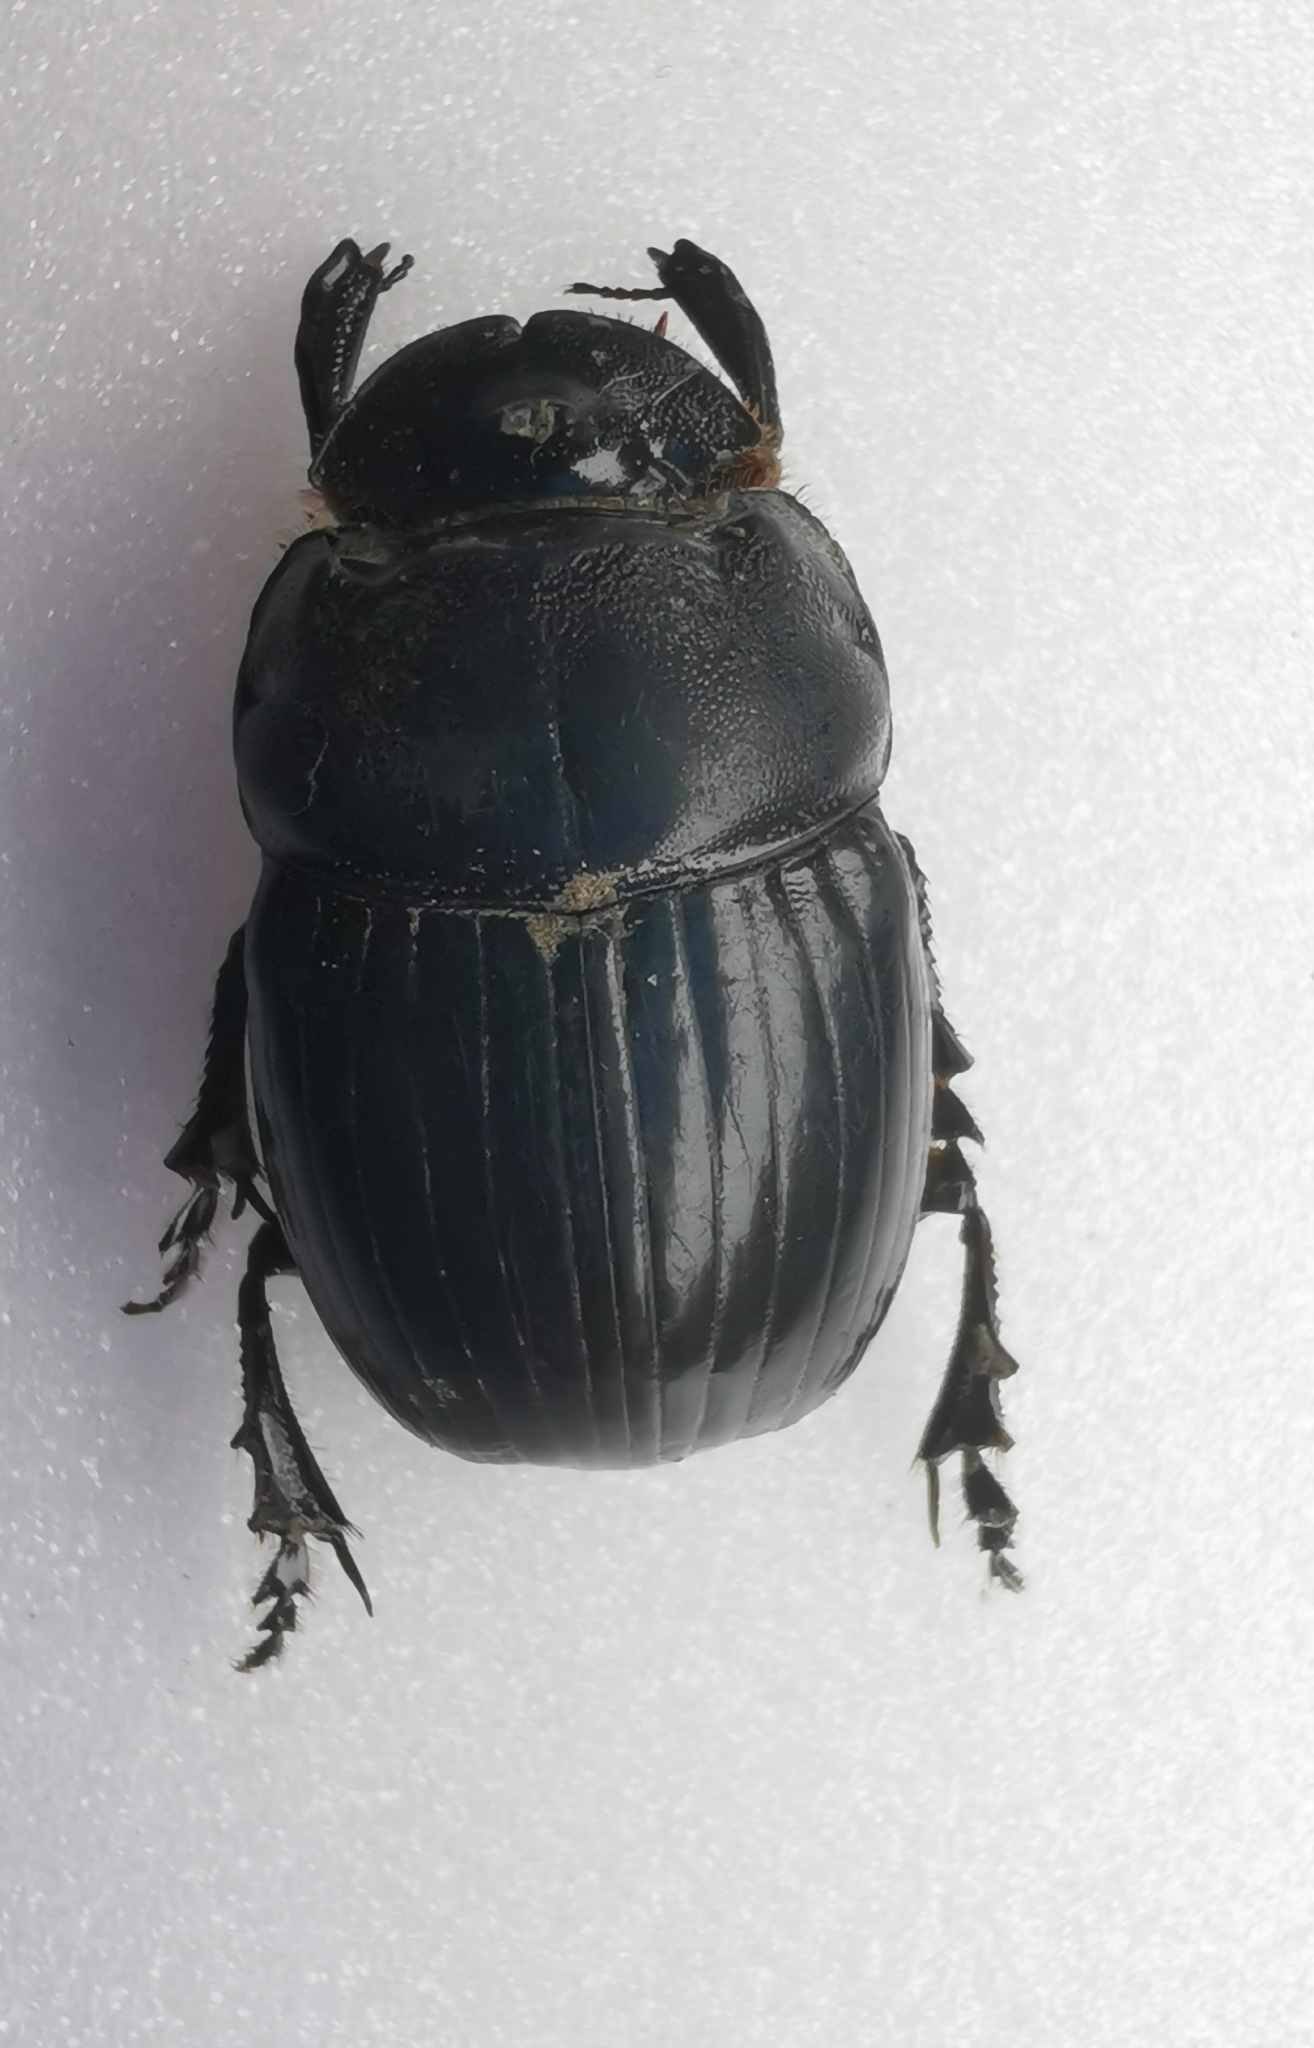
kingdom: Animalia
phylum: Arthropoda
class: Insecta
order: Coleoptera
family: Scarabaeidae
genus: Copris
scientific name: Copris lunaris
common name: Horned dung beetle
